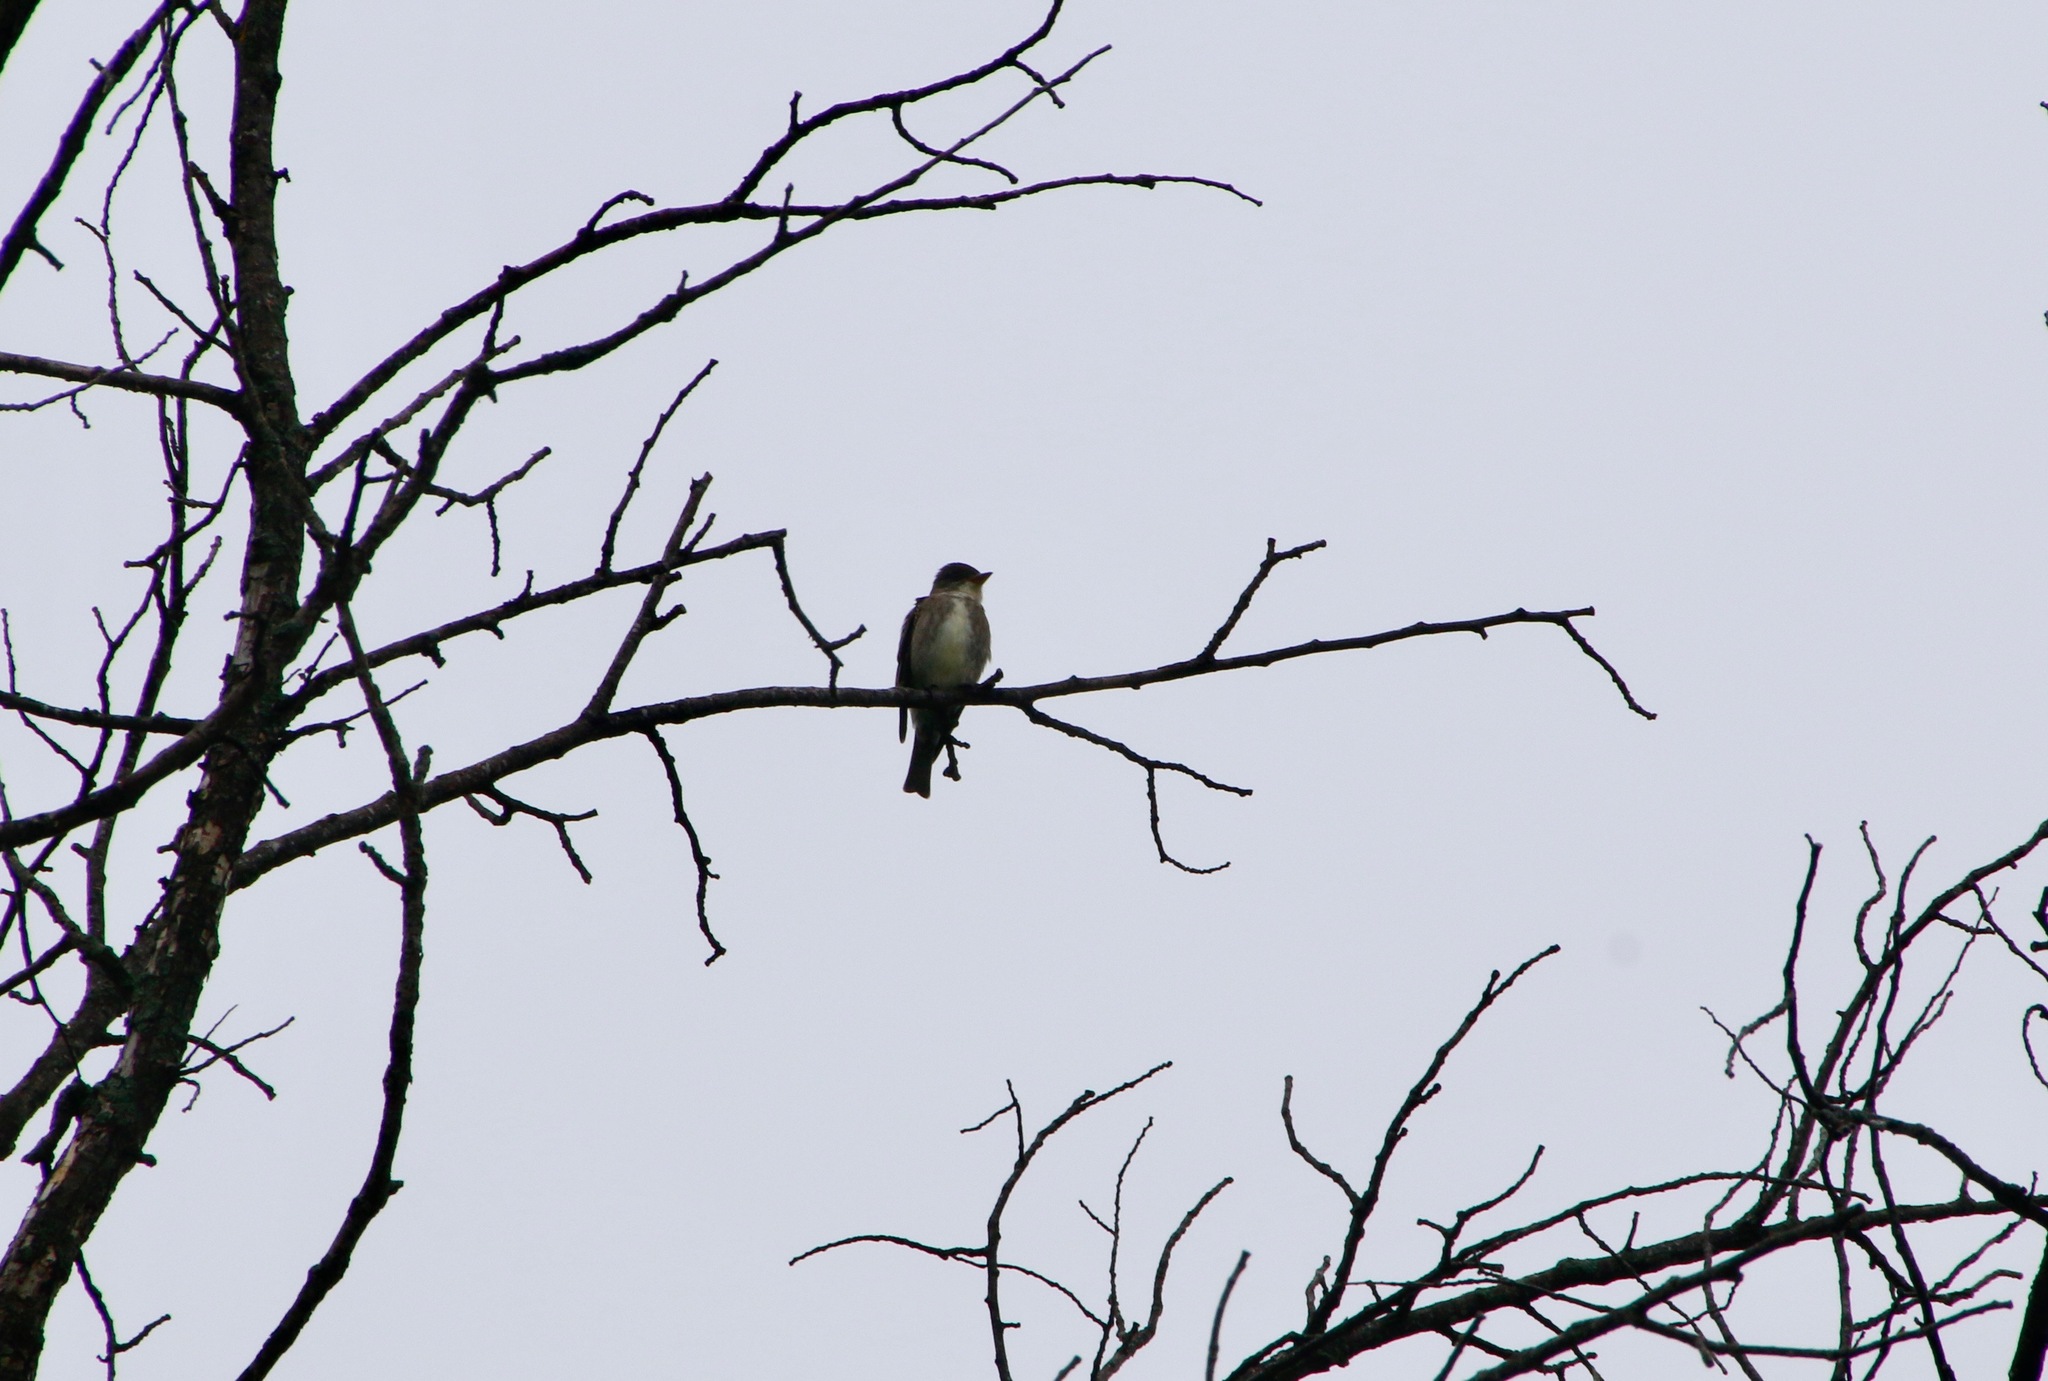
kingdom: Animalia
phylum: Chordata
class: Aves
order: Passeriformes
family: Tyrannidae
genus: Contopus
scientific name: Contopus cooperi
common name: Olive-sided flycatcher
